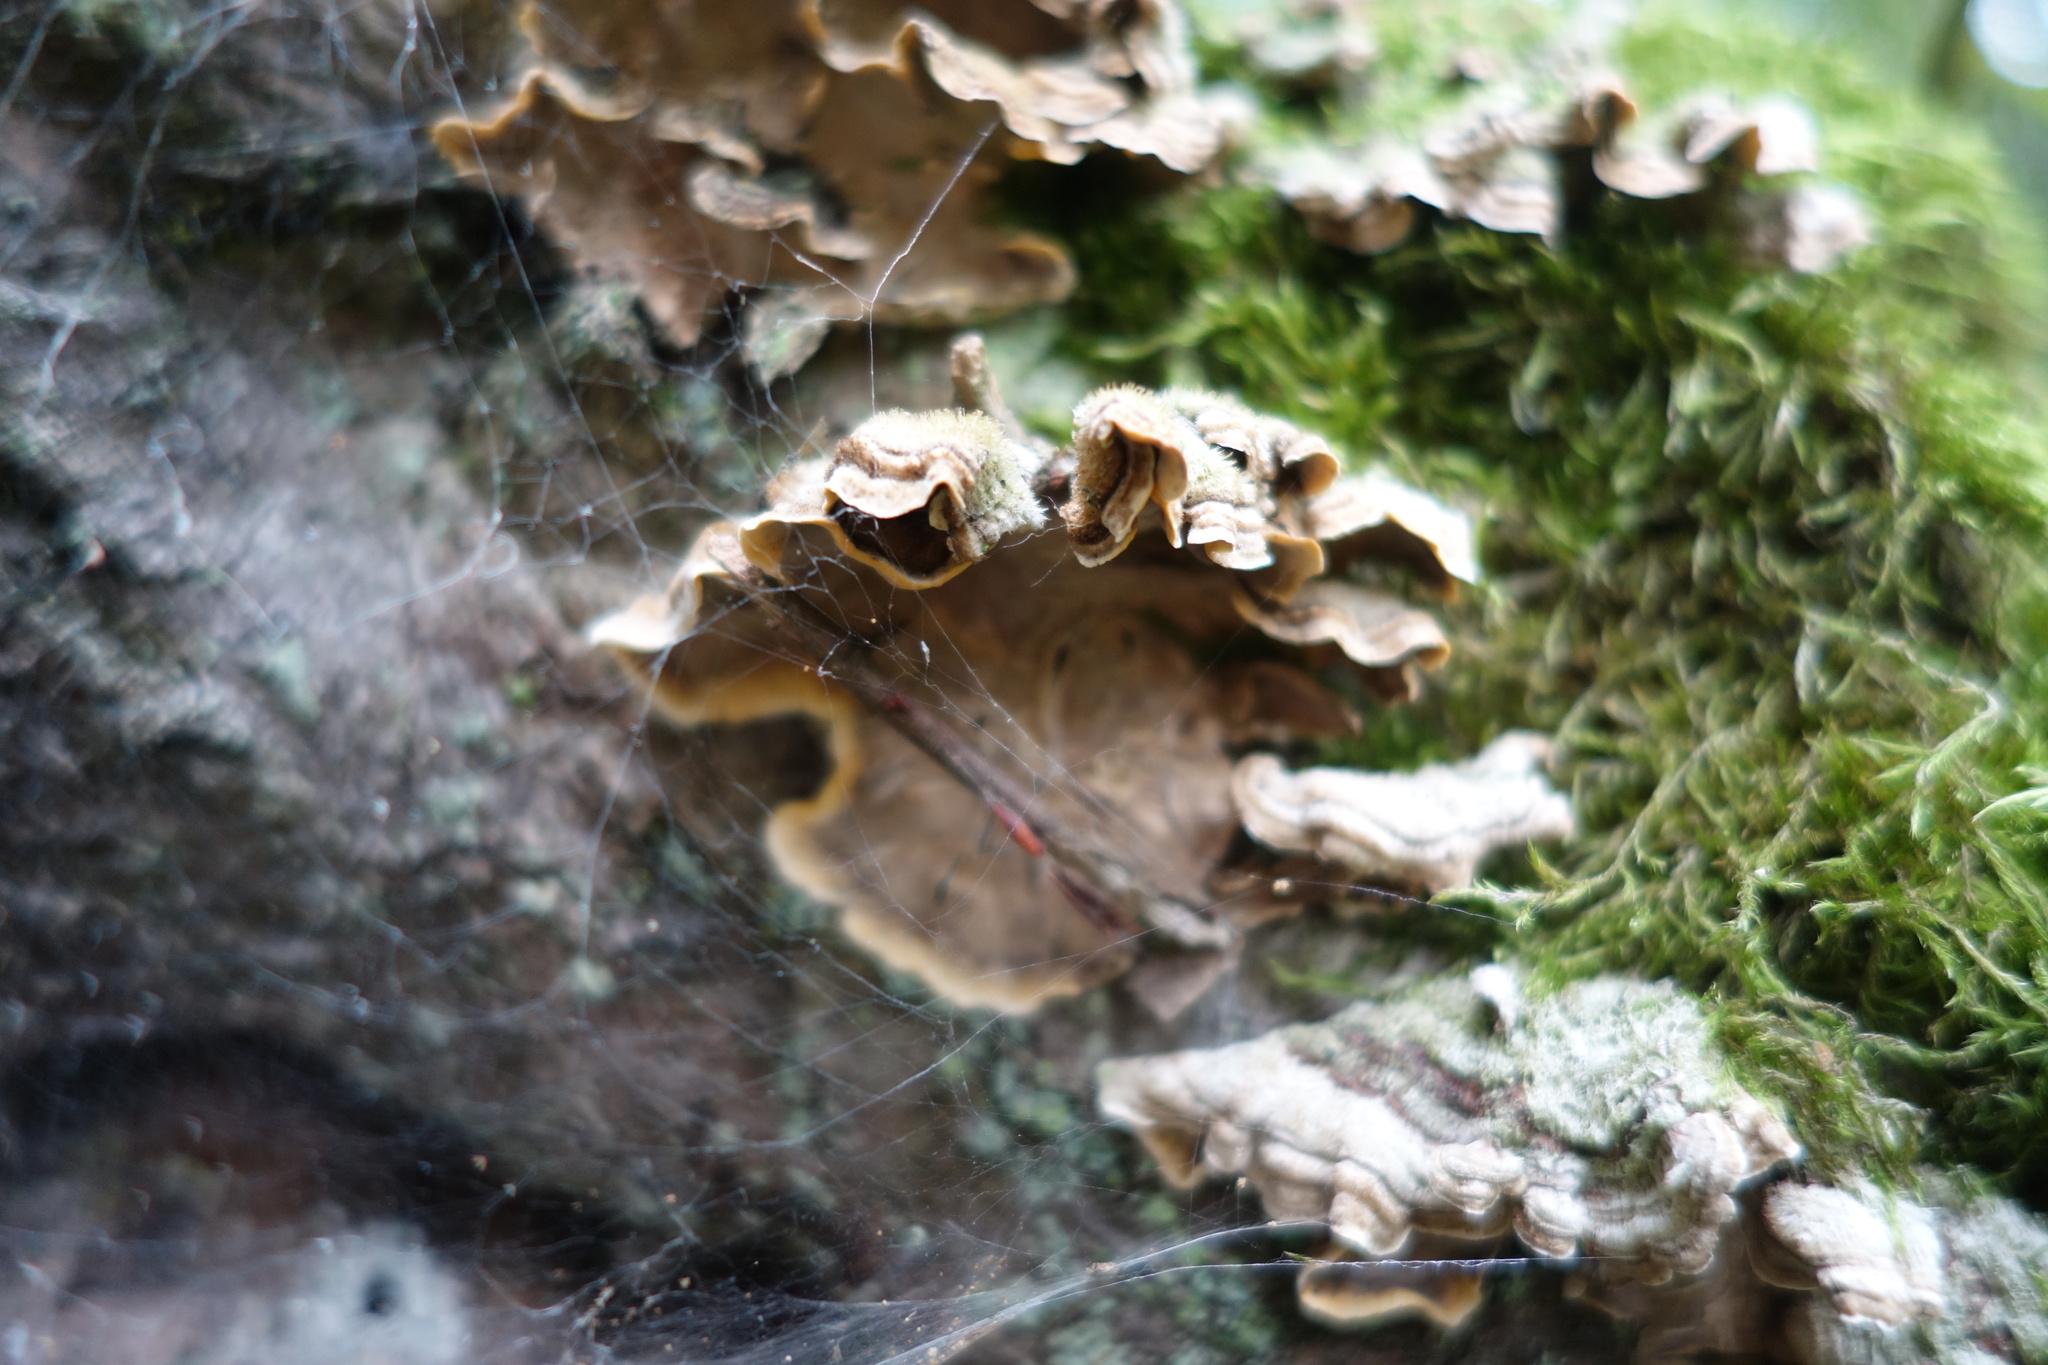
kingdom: Fungi
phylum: Basidiomycota
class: Agaricomycetes
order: Polyporales
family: Polyporaceae
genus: Trametes
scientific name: Trametes versicolor
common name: Turkeytail
